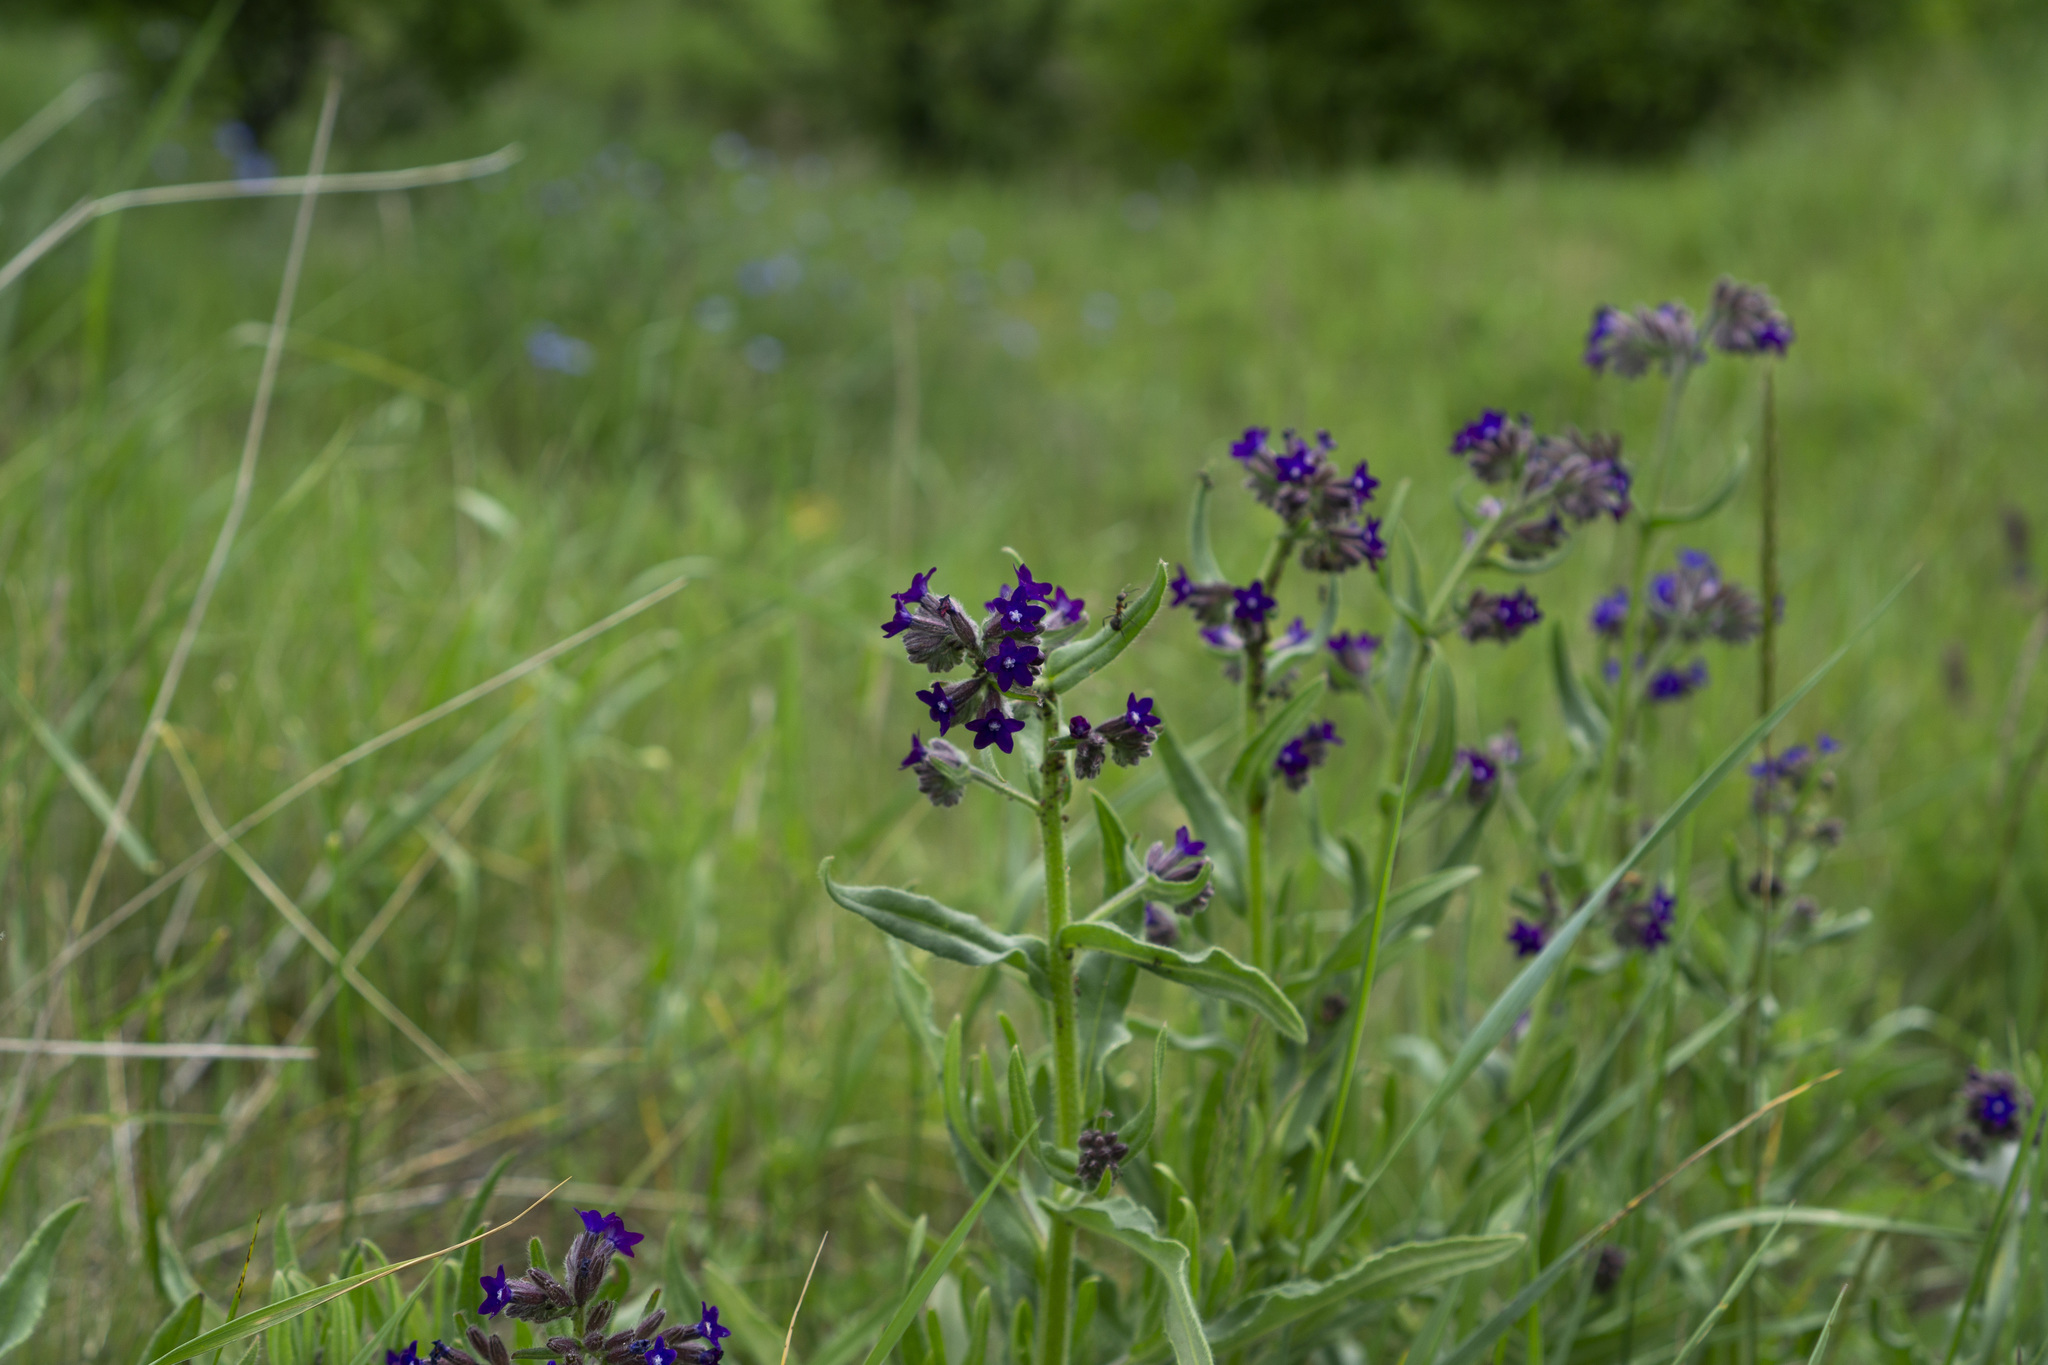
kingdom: Plantae
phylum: Tracheophyta
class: Magnoliopsida
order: Boraginales
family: Boraginaceae
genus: Anchusa
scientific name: Anchusa officinalis
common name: Alkanet
